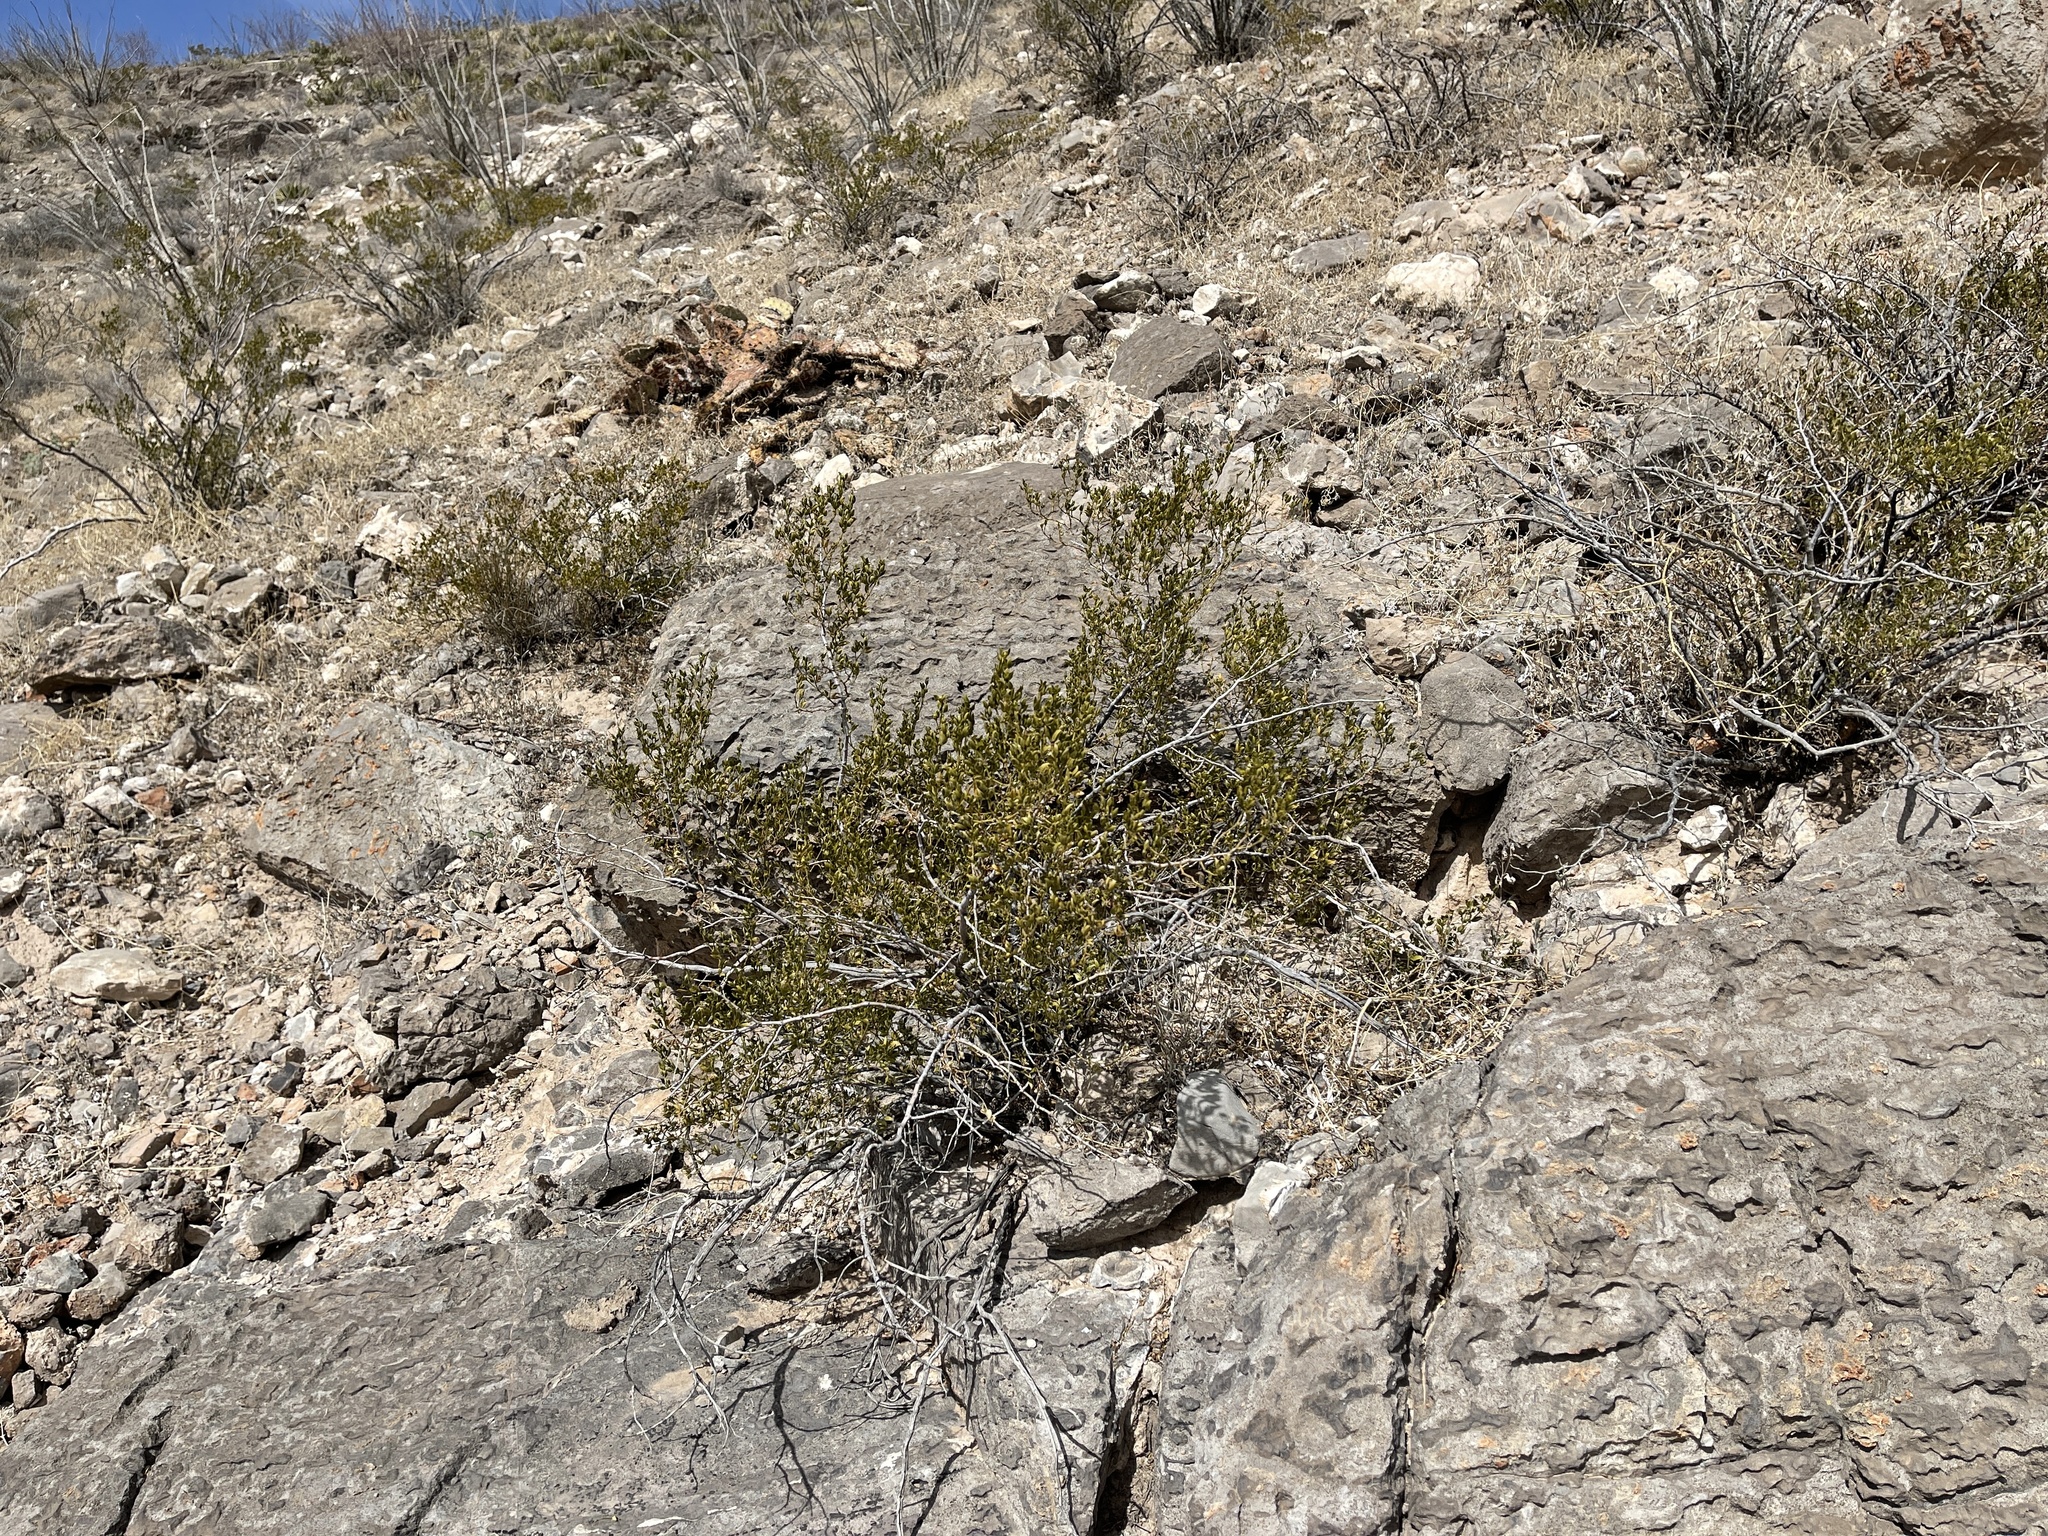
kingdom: Plantae
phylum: Tracheophyta
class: Magnoliopsida
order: Zygophyllales
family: Zygophyllaceae
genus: Larrea
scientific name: Larrea tridentata
